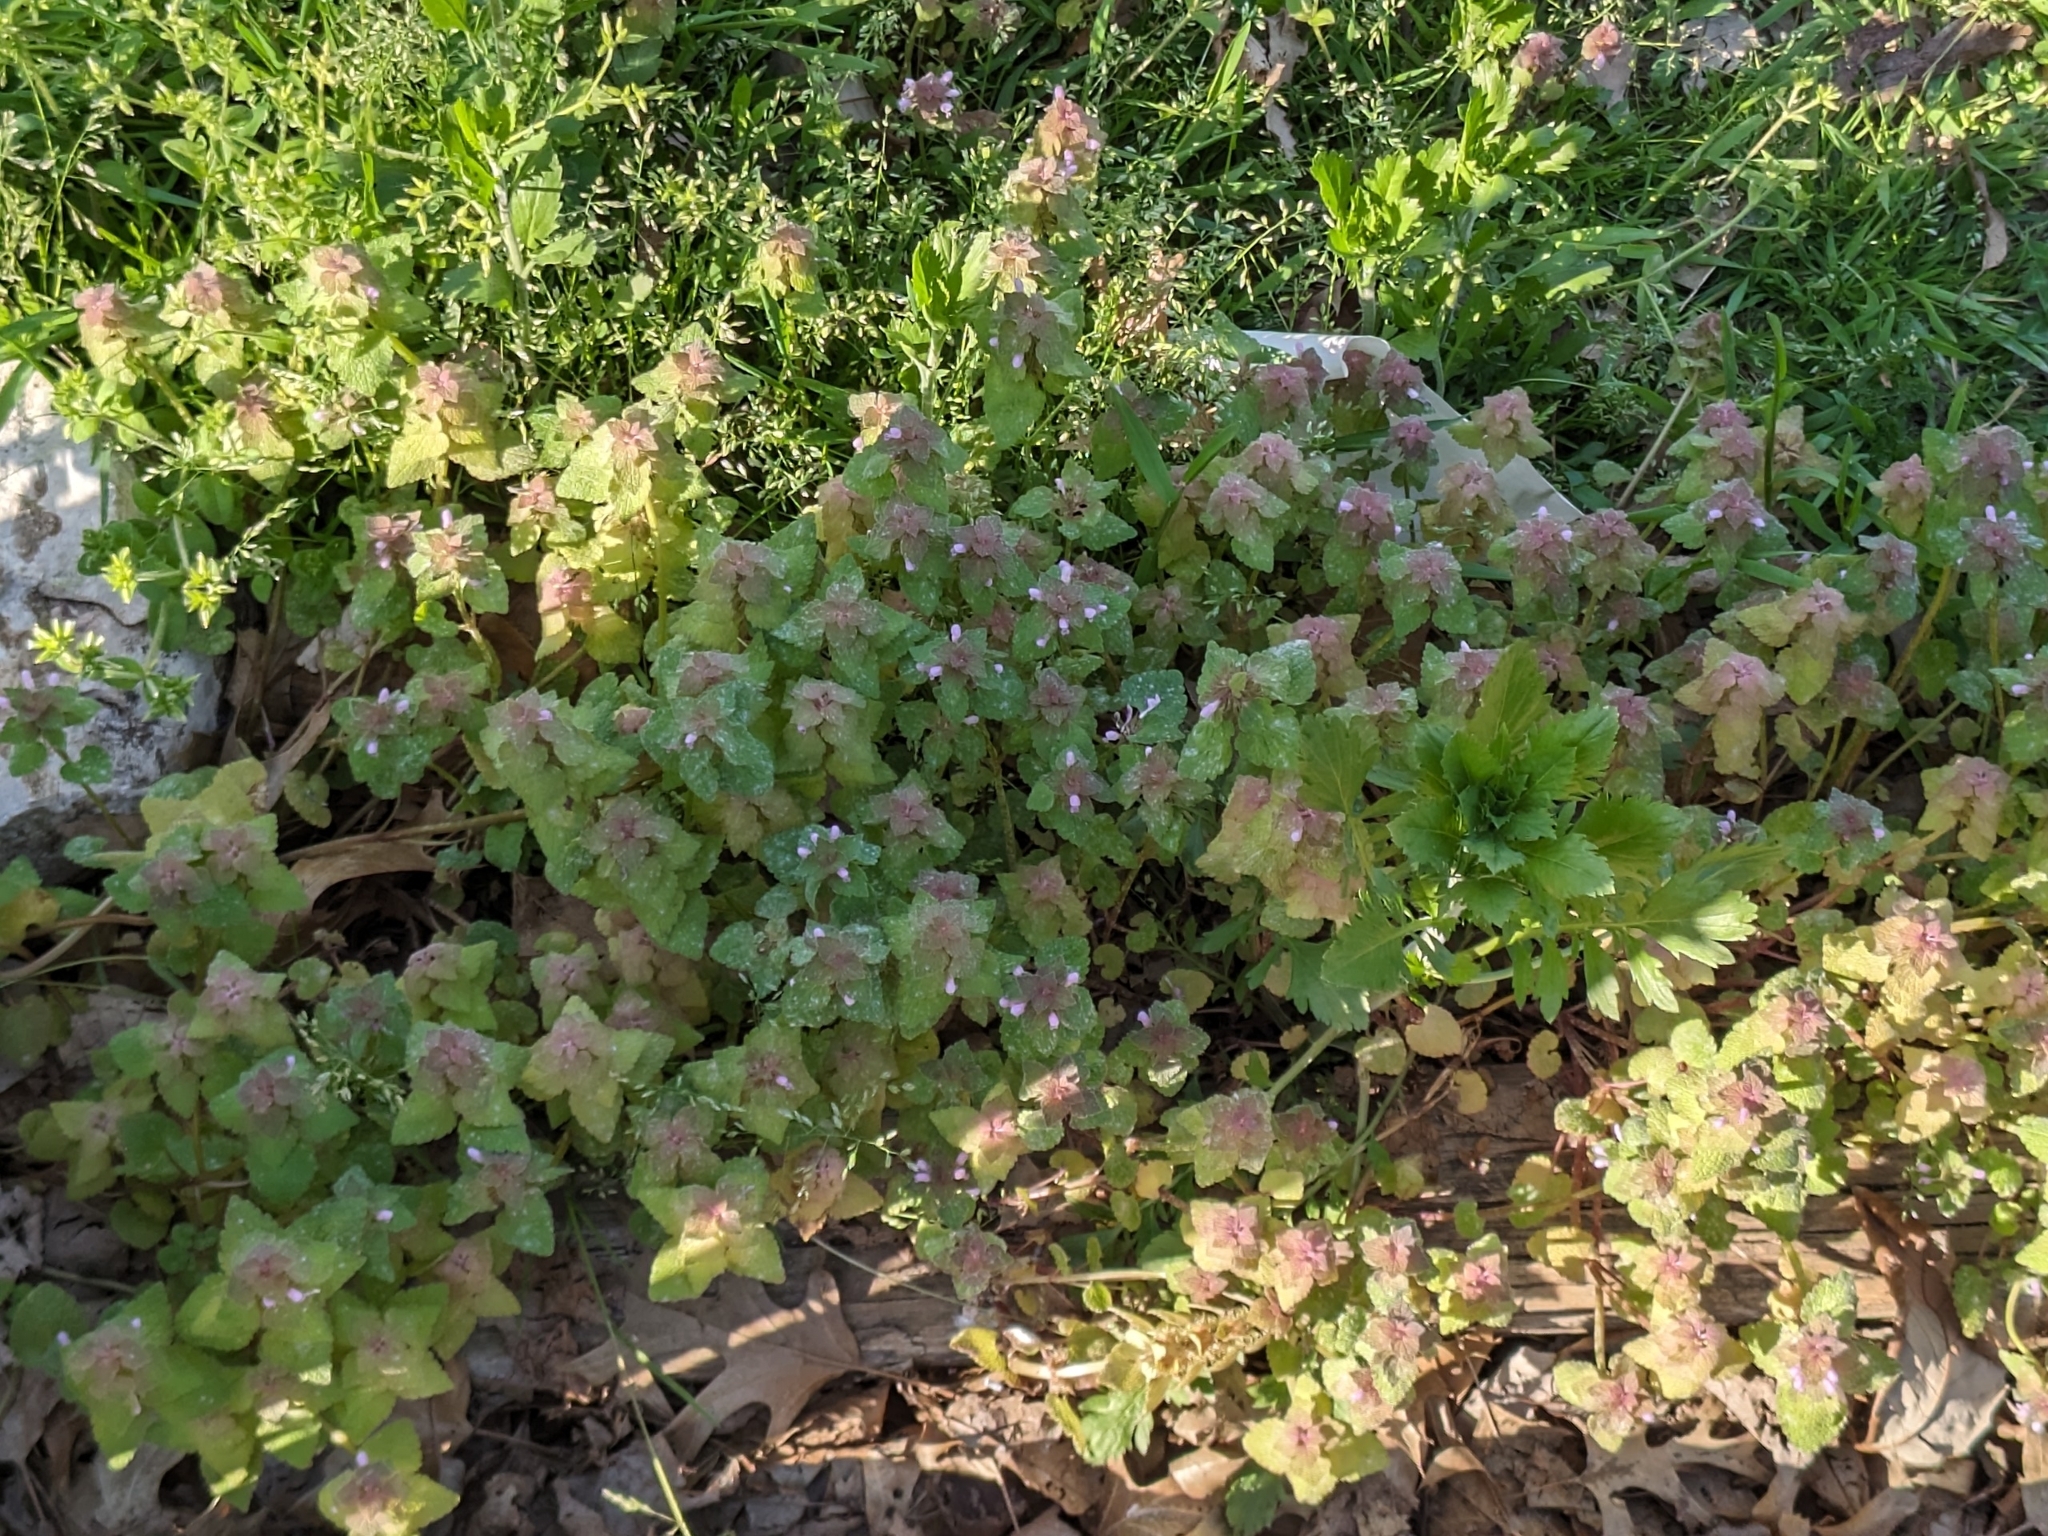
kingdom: Plantae
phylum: Tracheophyta
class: Magnoliopsida
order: Lamiales
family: Lamiaceae
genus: Lamium
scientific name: Lamium purpureum
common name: Red dead-nettle
